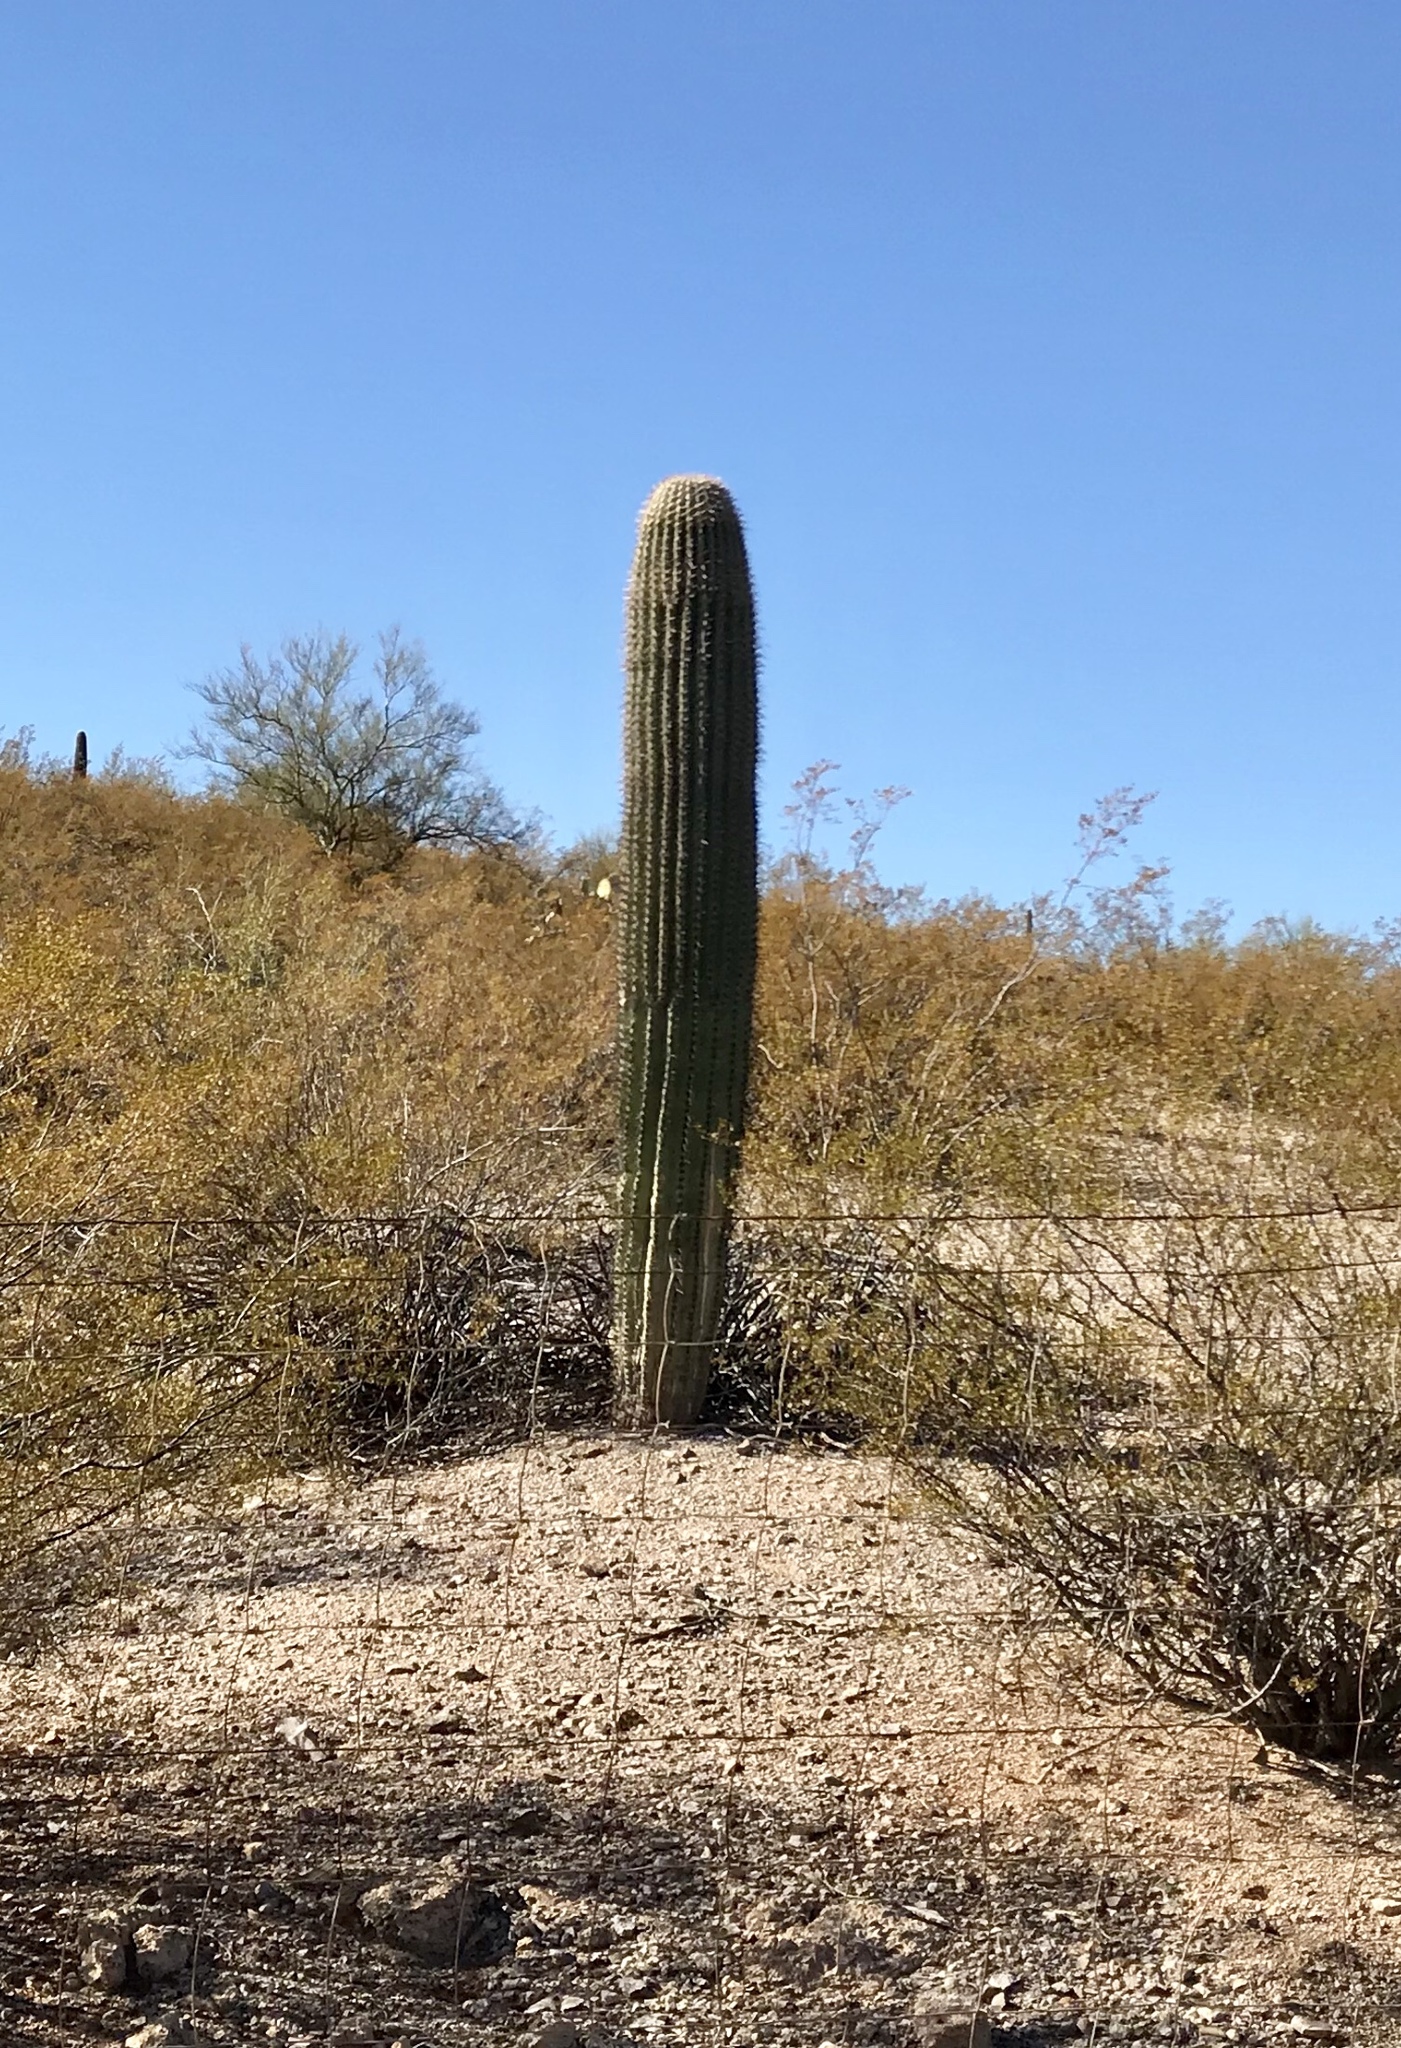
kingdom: Plantae
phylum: Tracheophyta
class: Magnoliopsida
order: Caryophyllales
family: Cactaceae
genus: Carnegiea
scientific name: Carnegiea gigantea
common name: Saguaro
